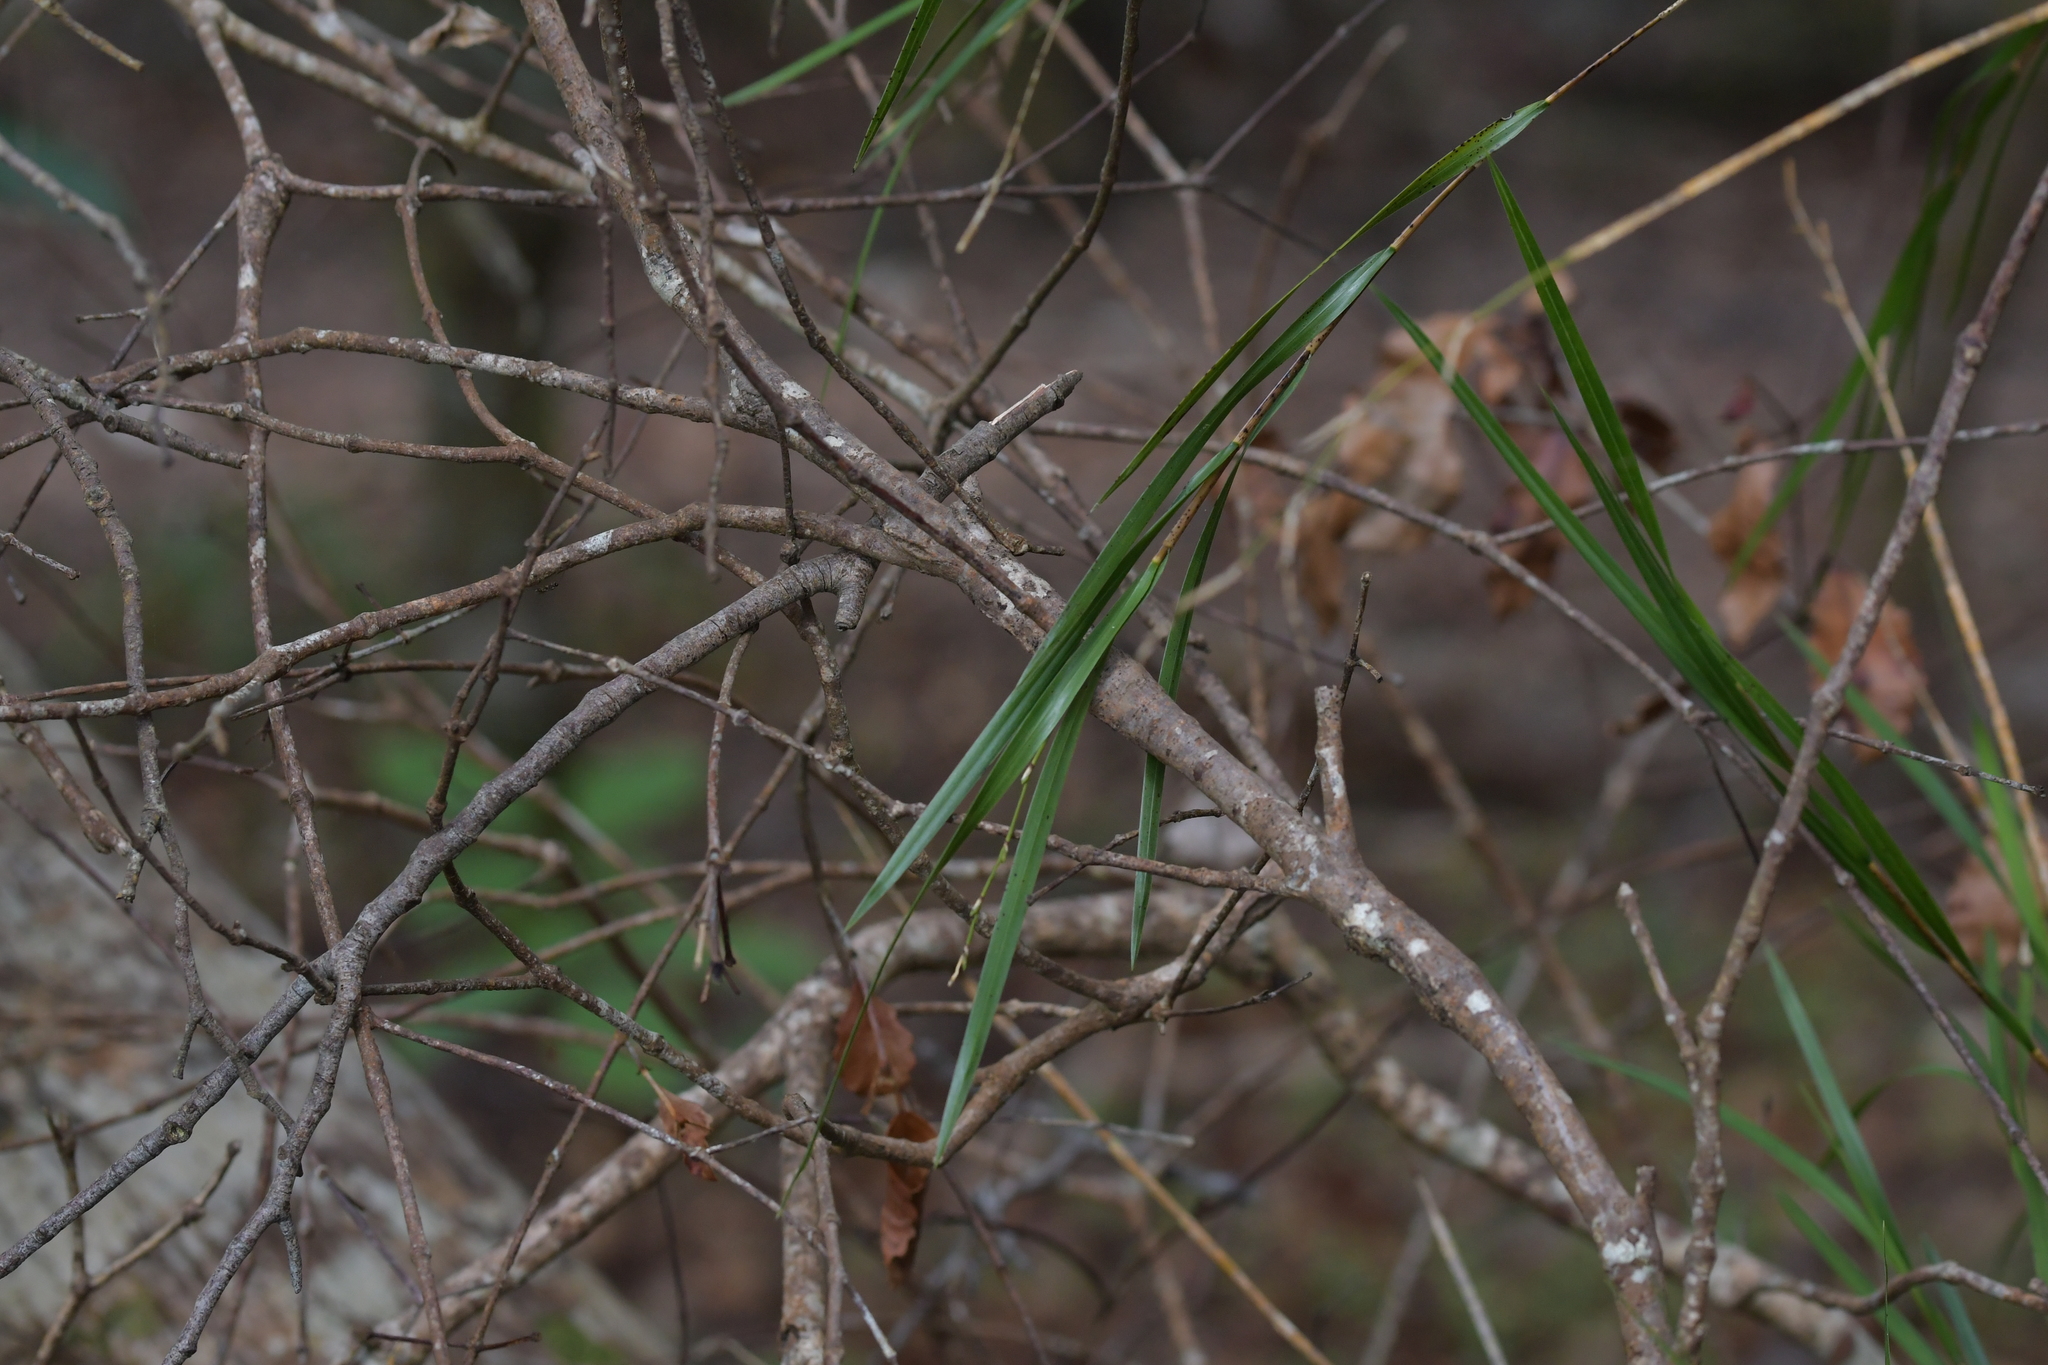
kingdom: Plantae
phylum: Tracheophyta
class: Liliopsida
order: Asparagales
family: Orchidaceae
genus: Earina
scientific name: Earina mucronata
